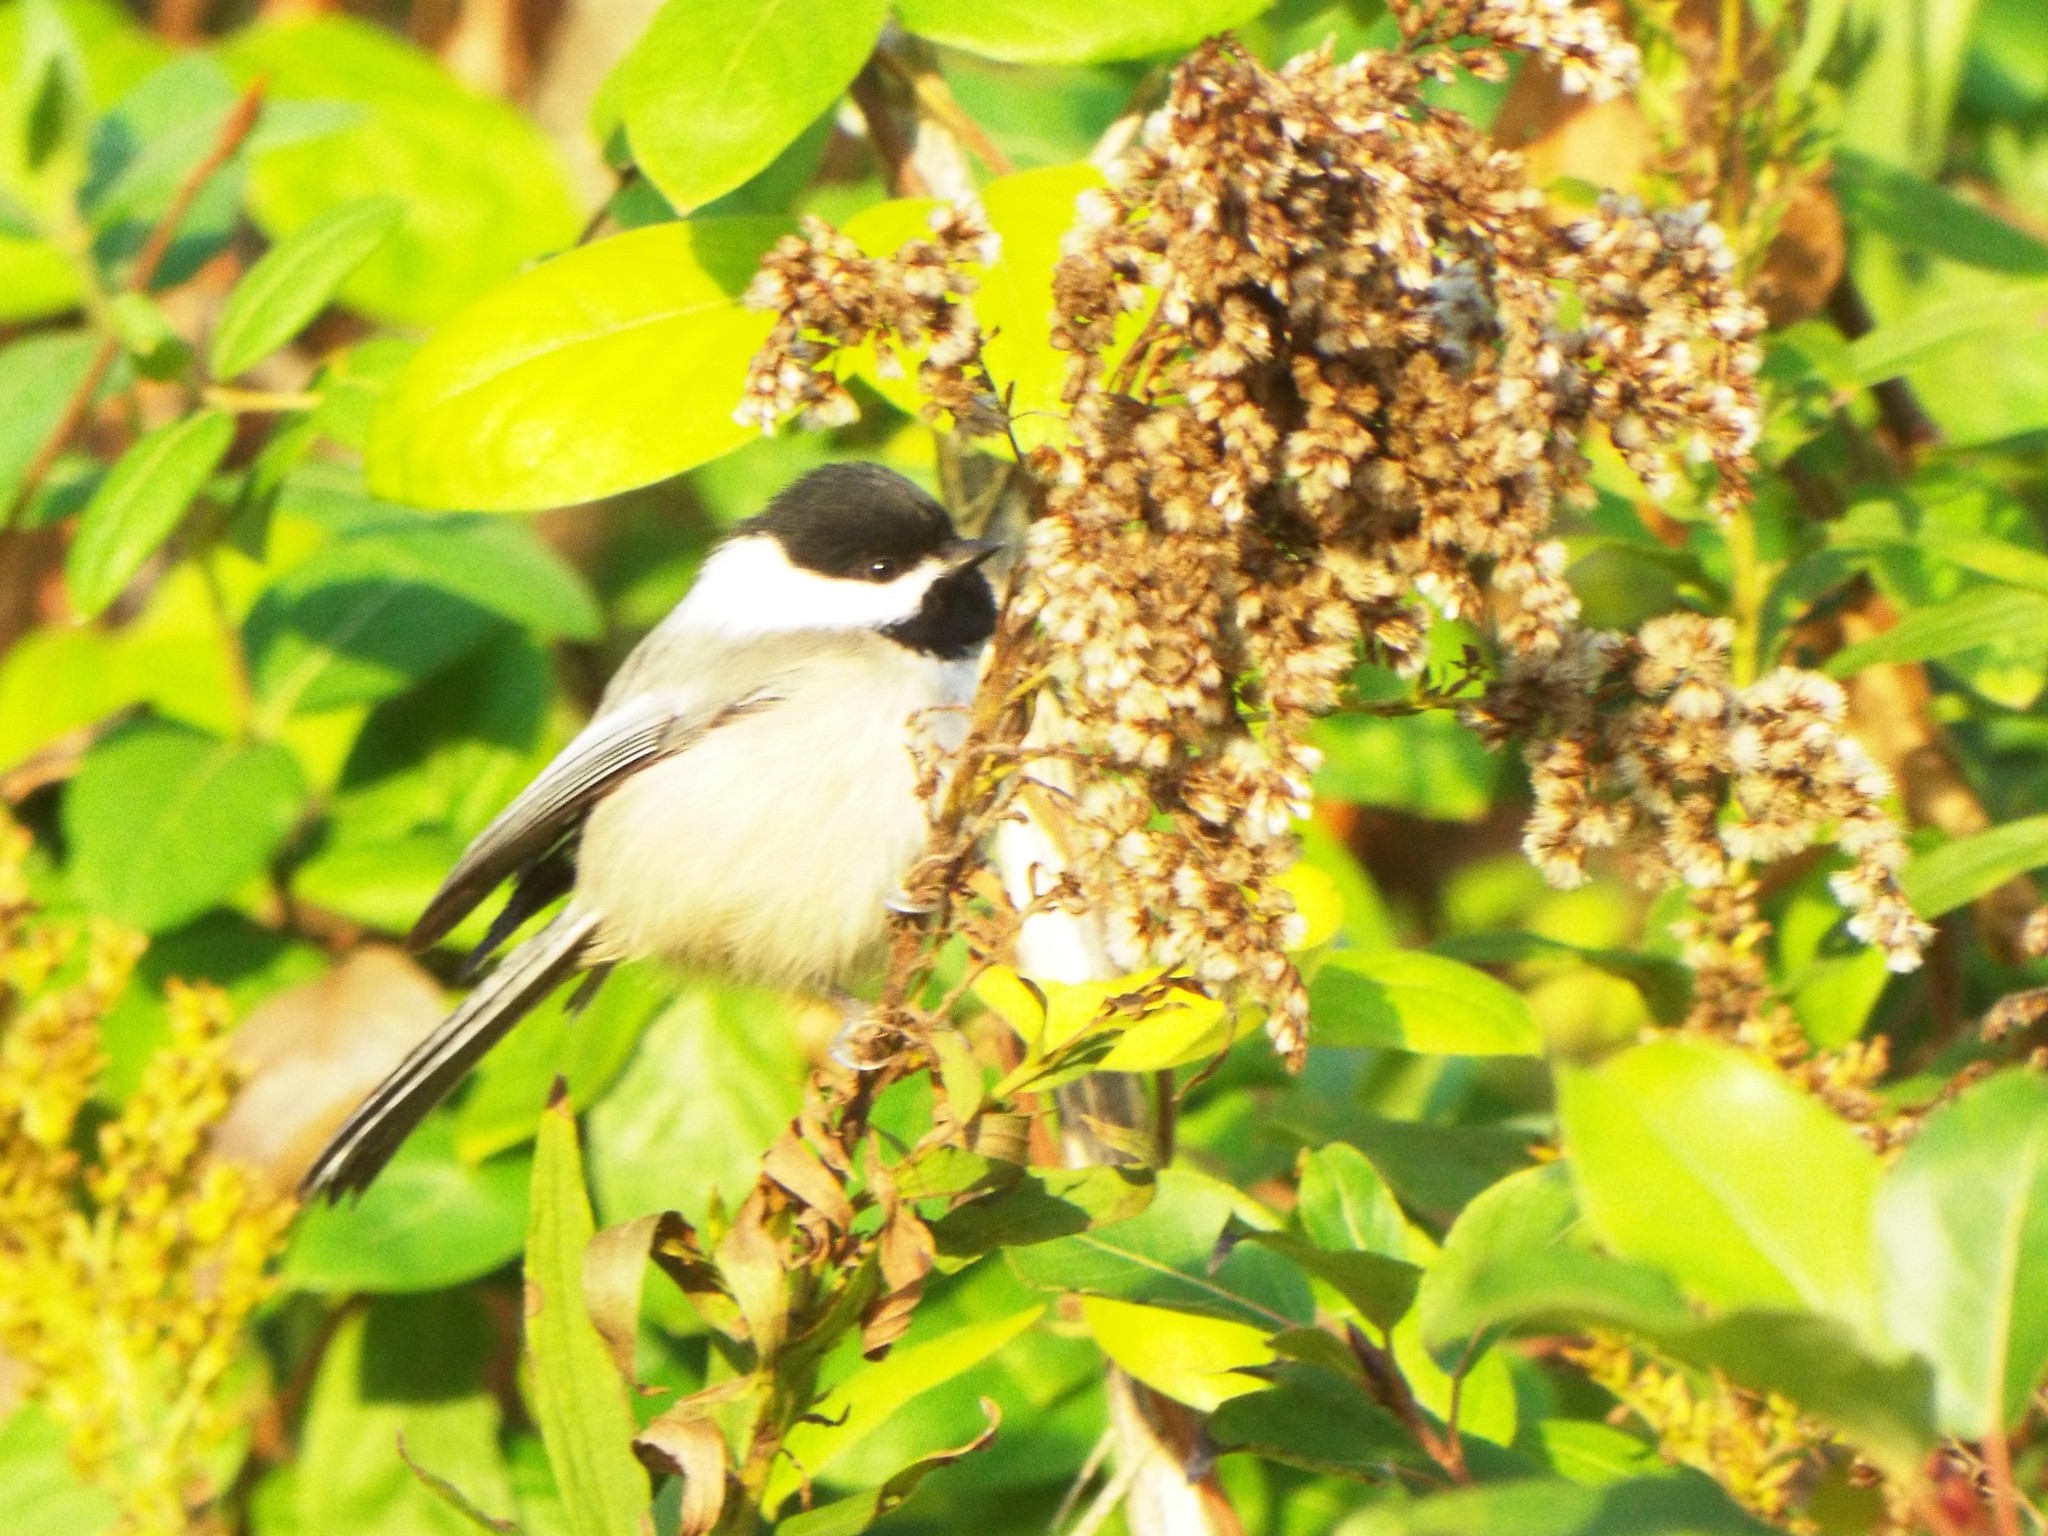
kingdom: Animalia
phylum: Chordata
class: Aves
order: Passeriformes
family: Paridae
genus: Poecile
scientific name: Poecile atricapillus
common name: Black-capped chickadee
